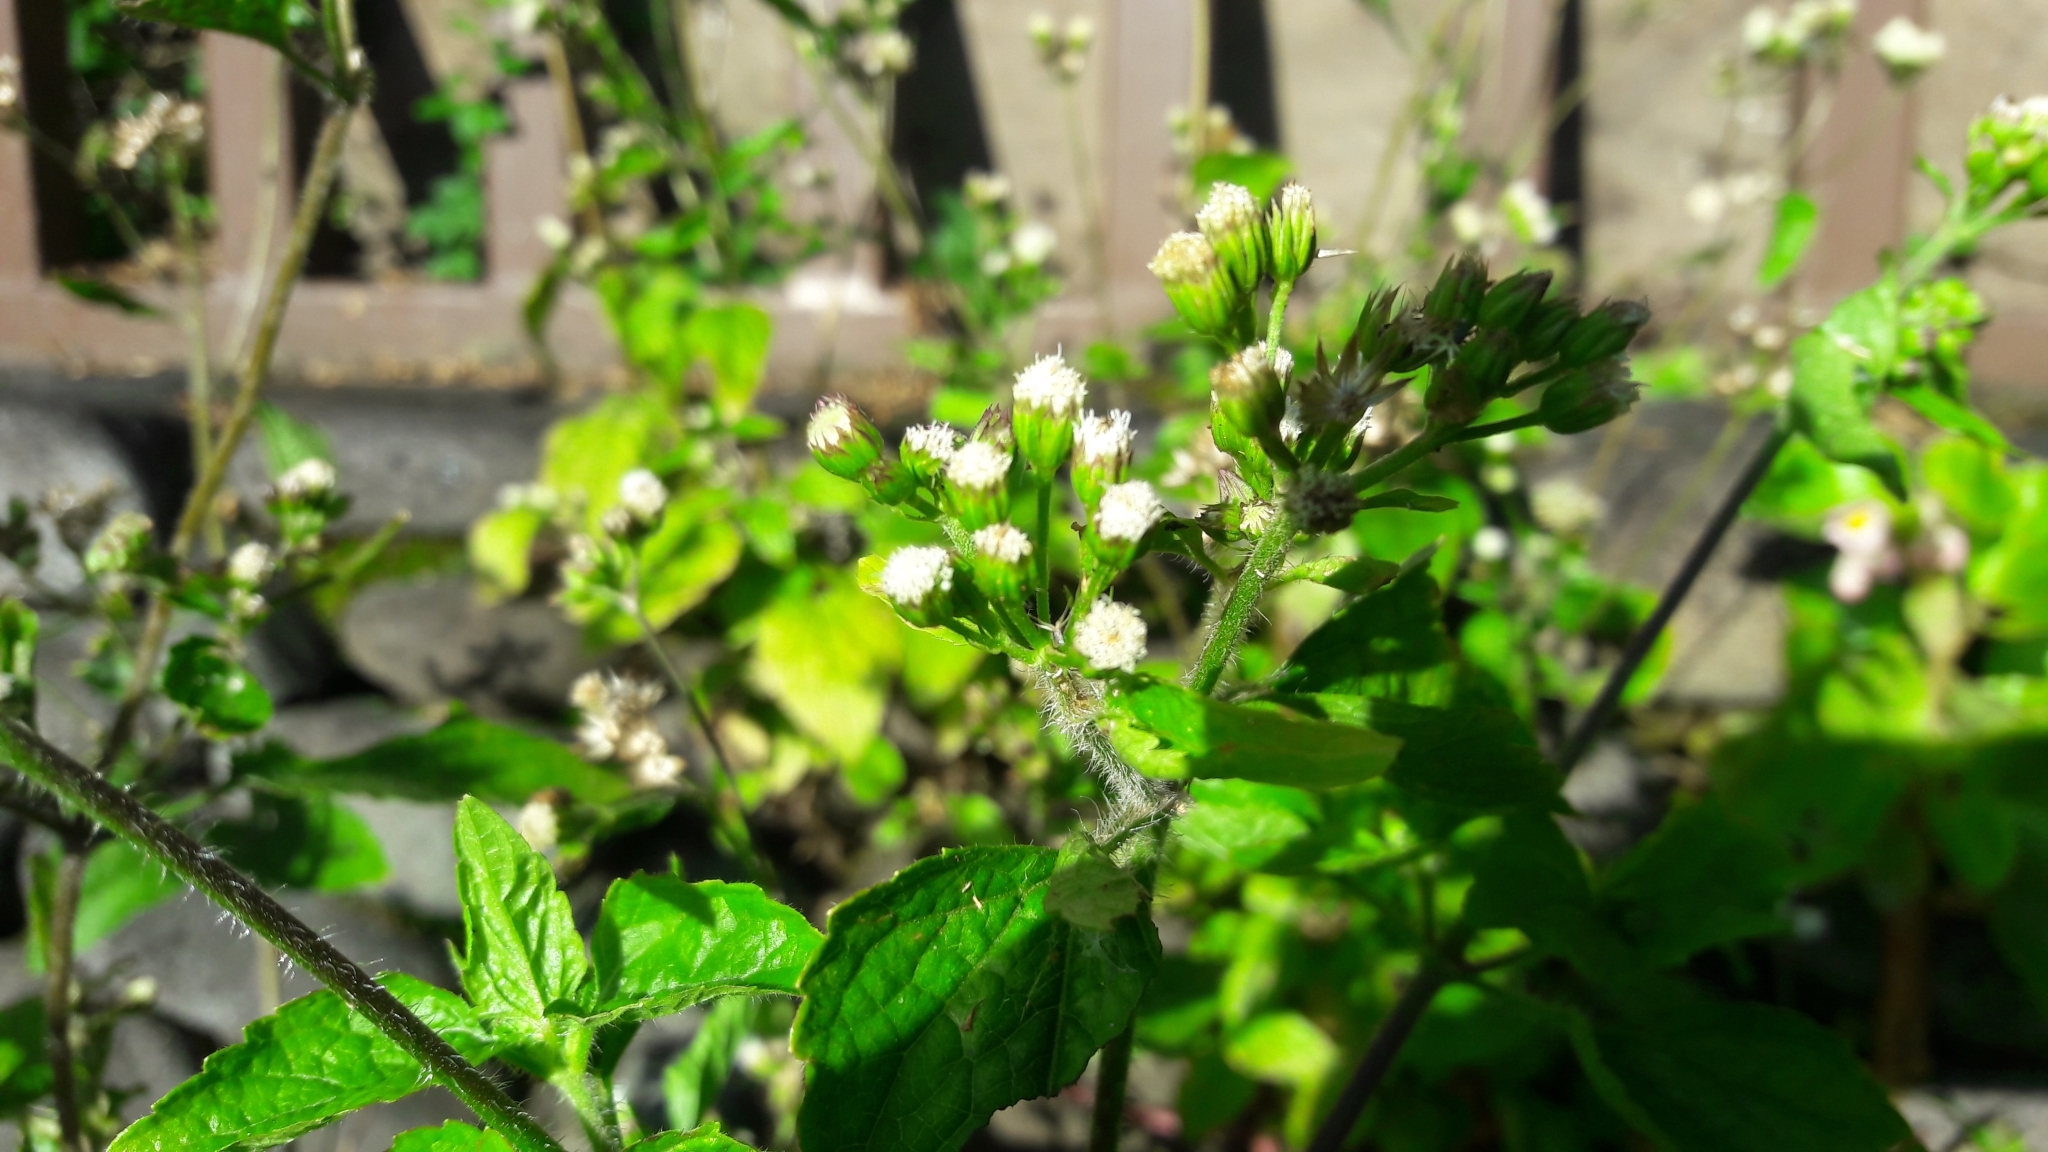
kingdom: Plantae
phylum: Tracheophyta
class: Magnoliopsida
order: Asterales
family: Asteraceae
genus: Ageratum
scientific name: Ageratum conyzoides
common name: Tropical whiteweed
